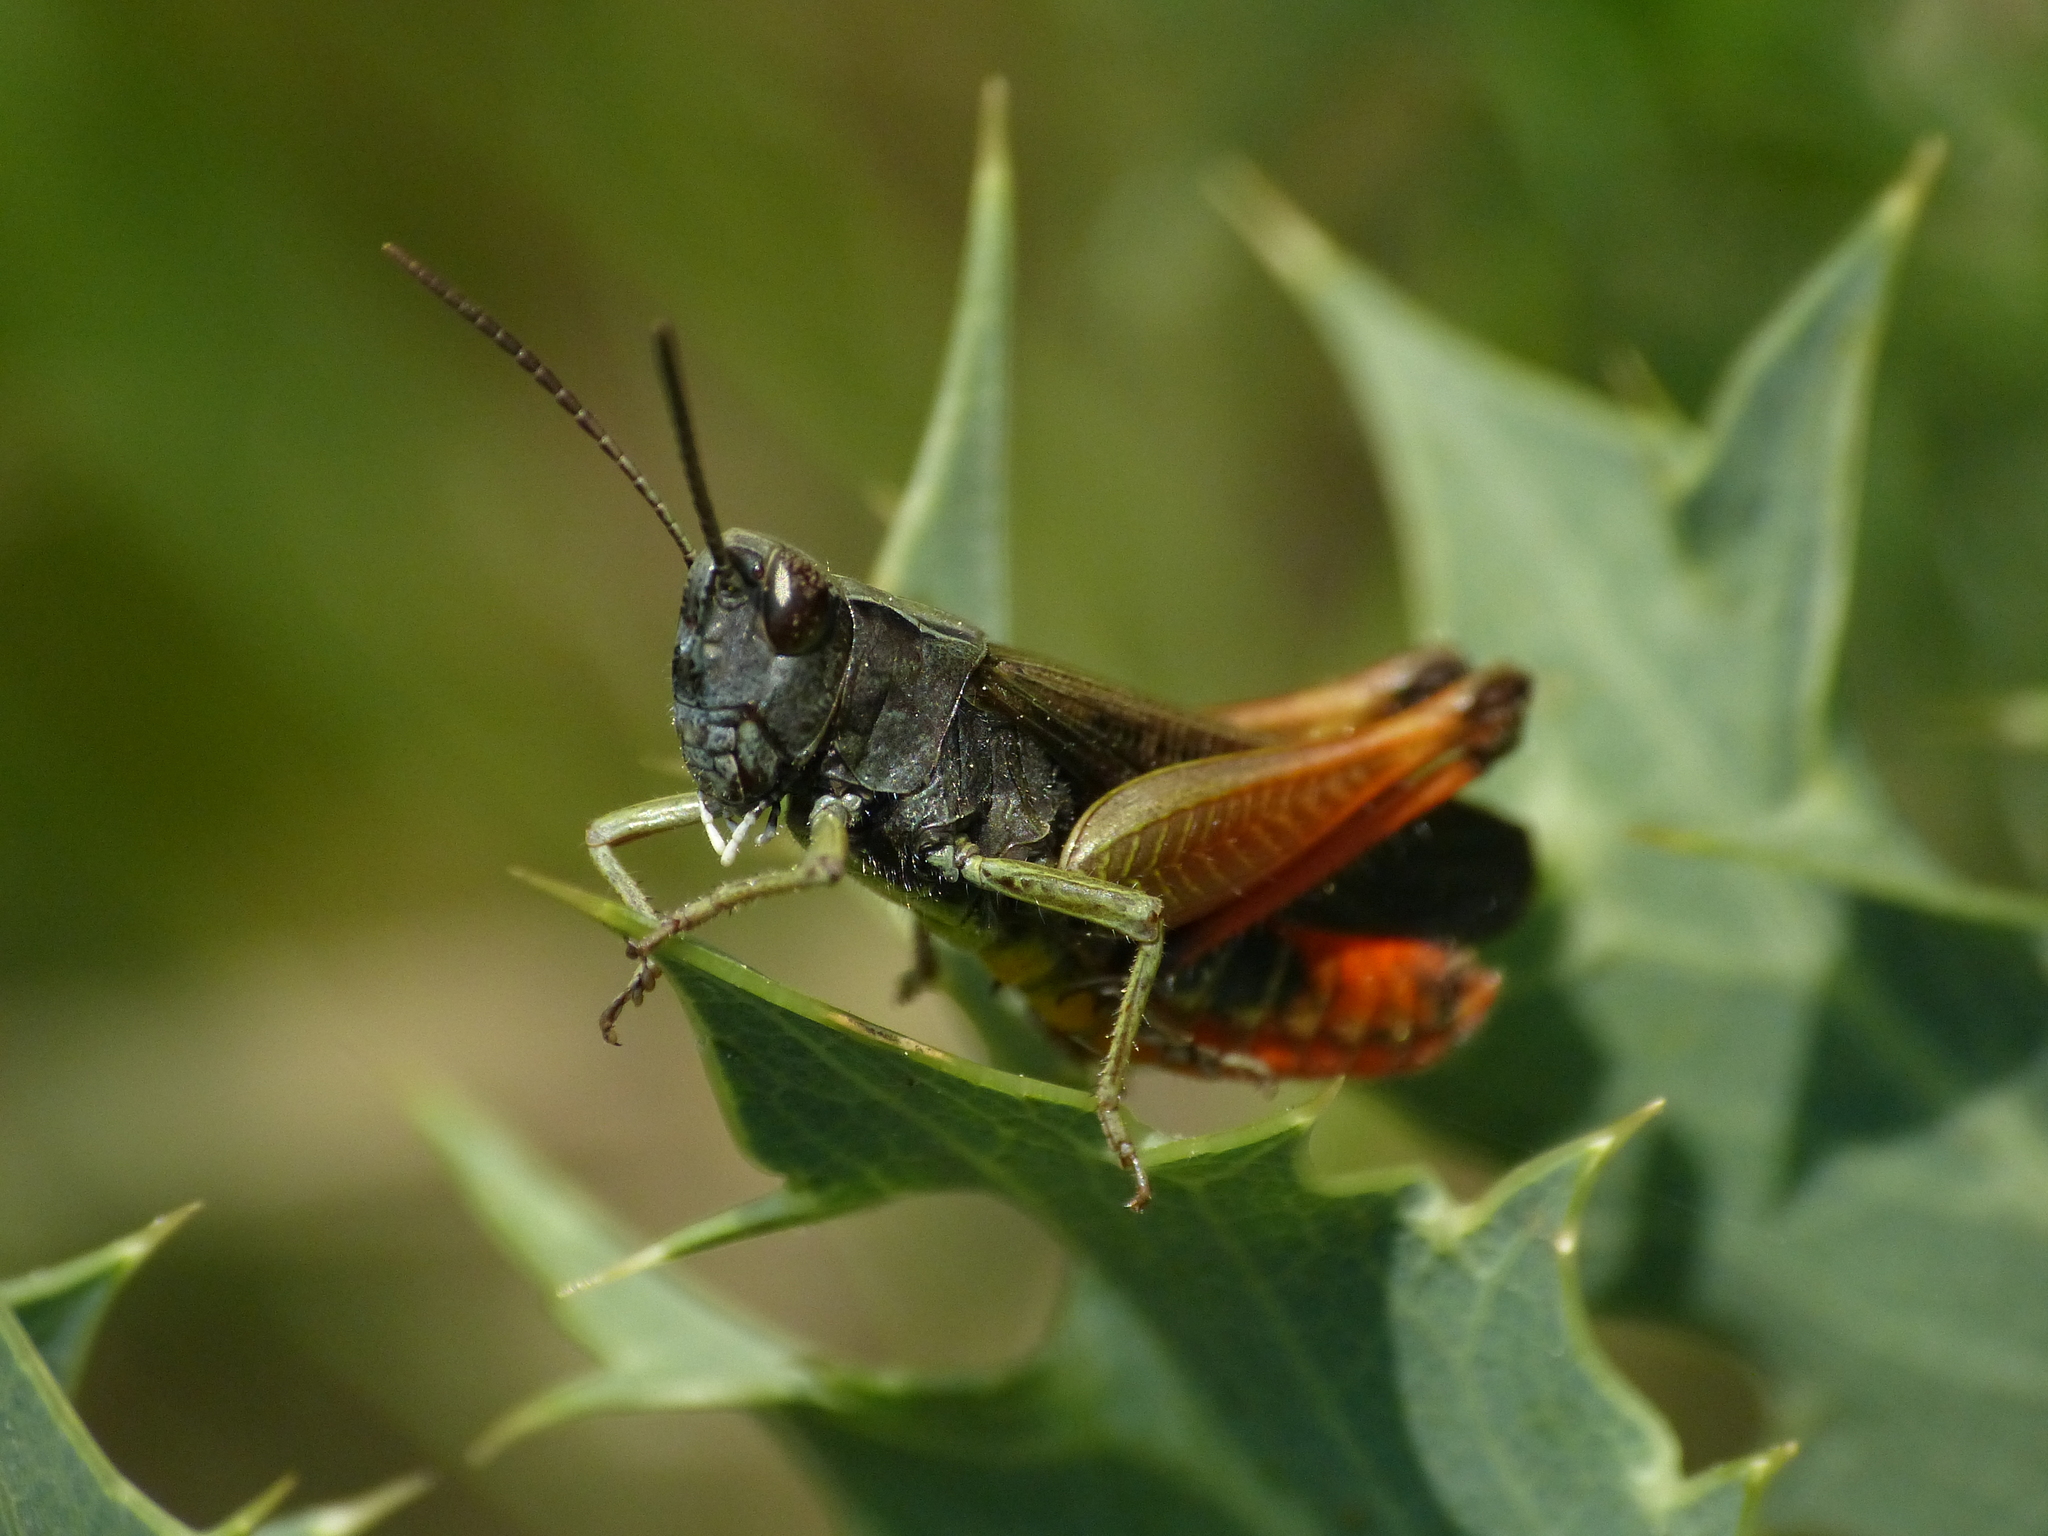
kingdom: Animalia
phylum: Arthropoda
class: Insecta
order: Orthoptera
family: Acrididae
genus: Omocestus
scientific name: Omocestus rufipes
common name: Woodland grasshopper
